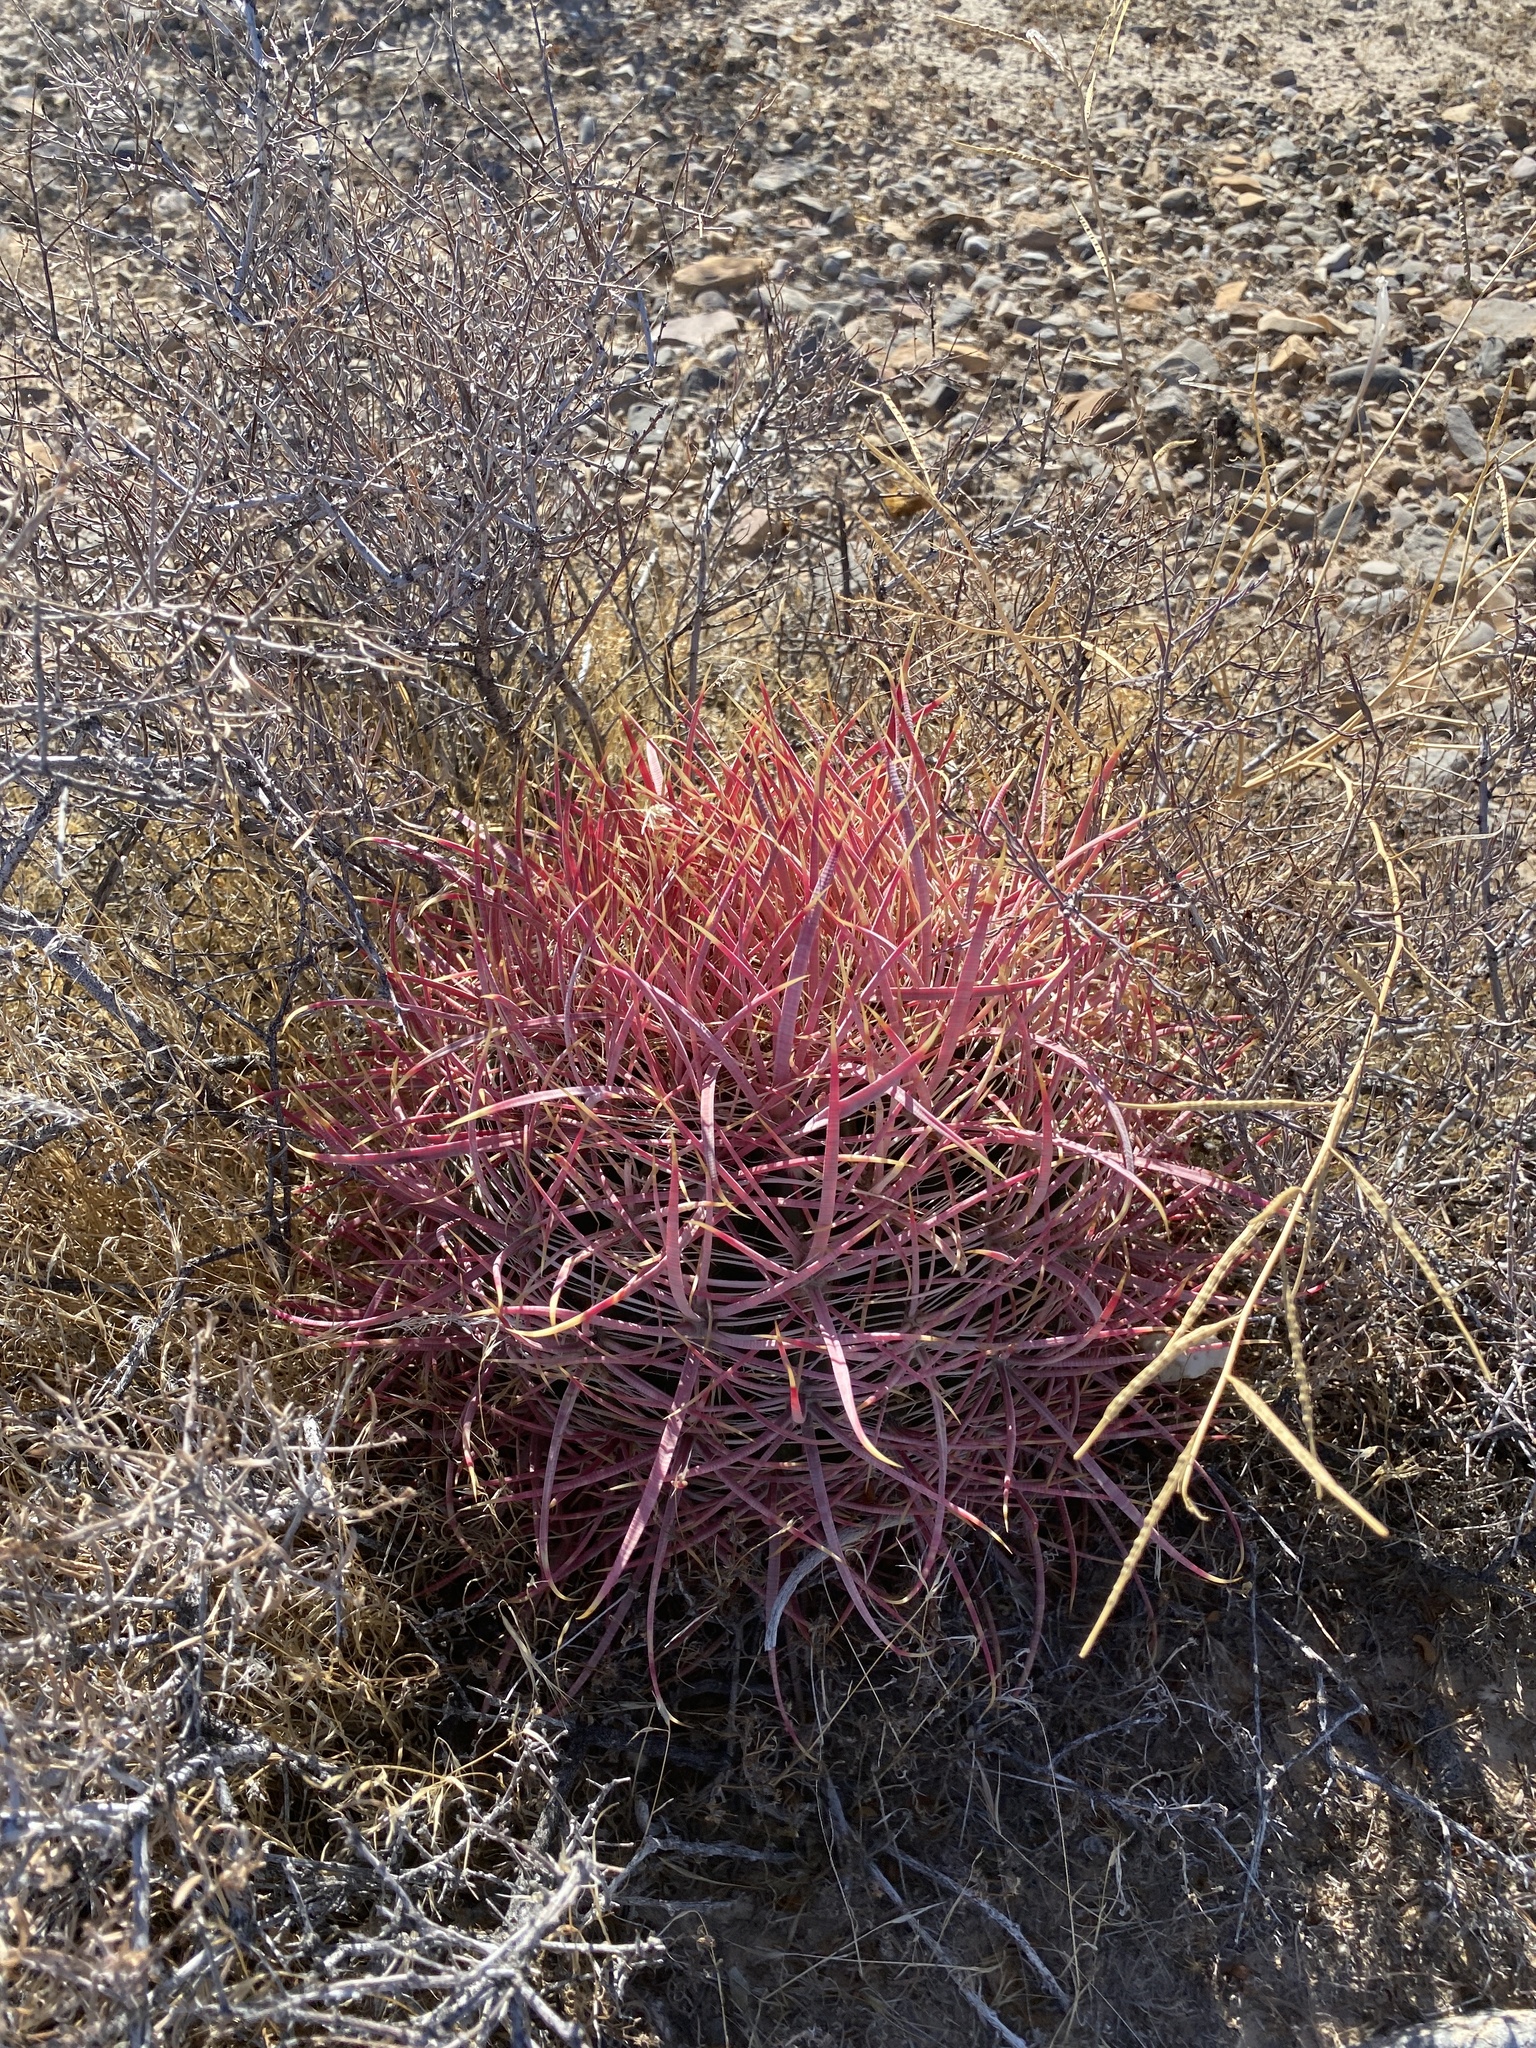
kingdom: Plantae
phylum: Tracheophyta
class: Magnoliopsida
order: Caryophyllales
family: Cactaceae
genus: Ferocactus
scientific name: Ferocactus cylindraceus
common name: California barrel cactus
